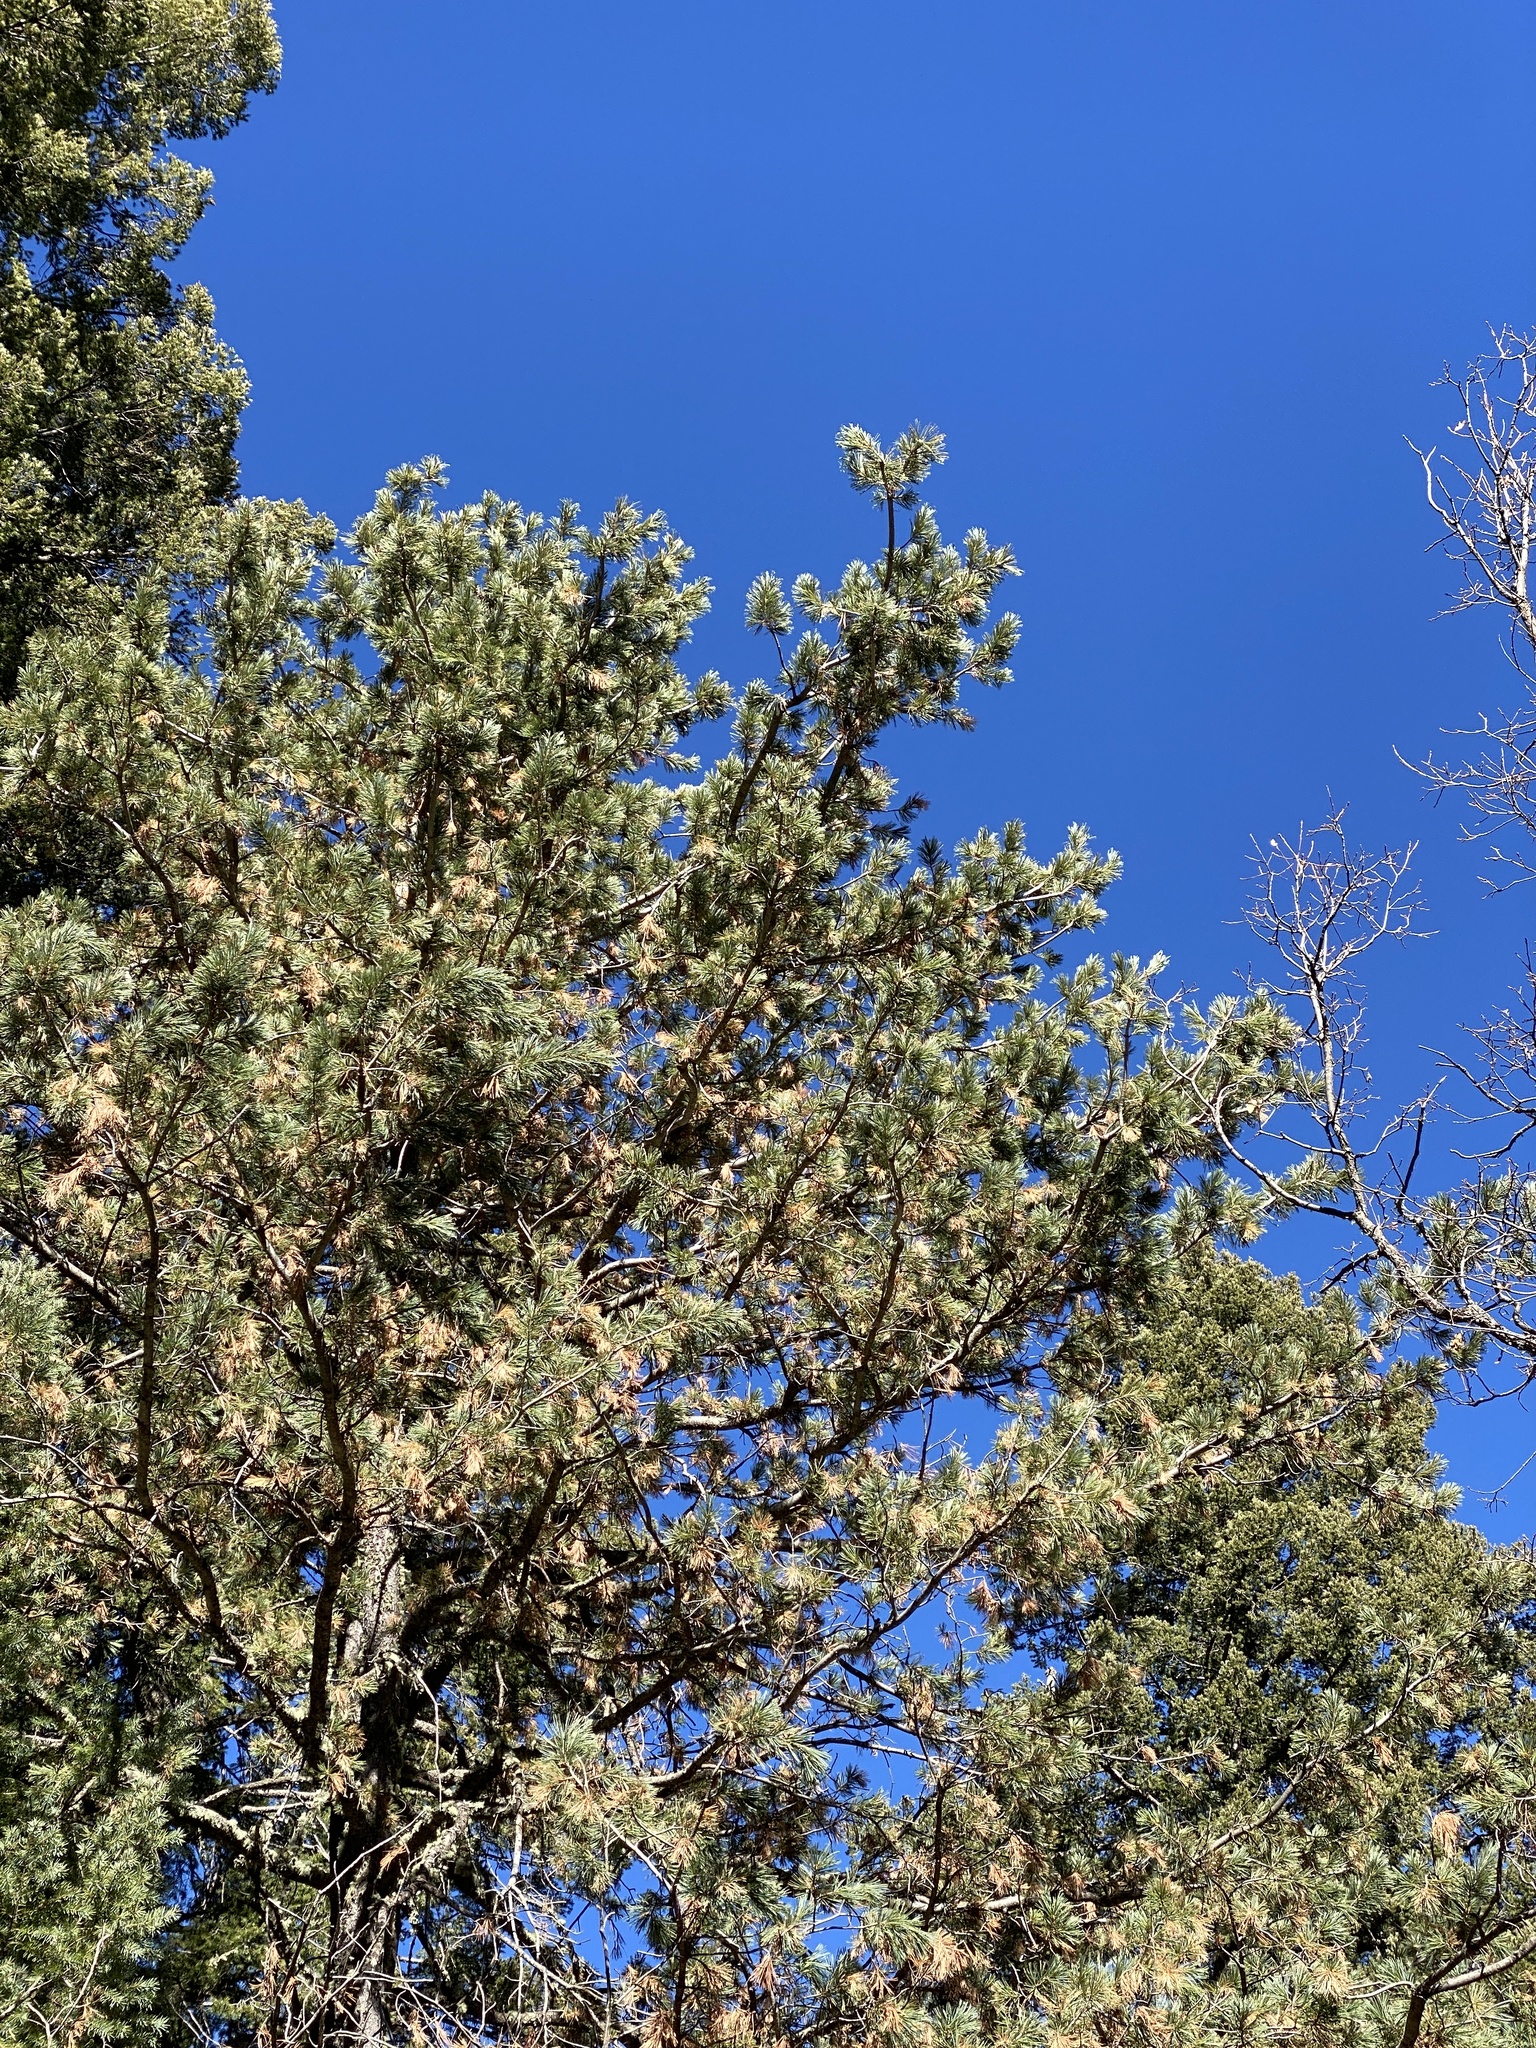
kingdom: Plantae
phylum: Tracheophyta
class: Pinopsida
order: Pinales
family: Pinaceae
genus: Pinus
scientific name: Pinus strobiformis
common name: Southwestern white pine
